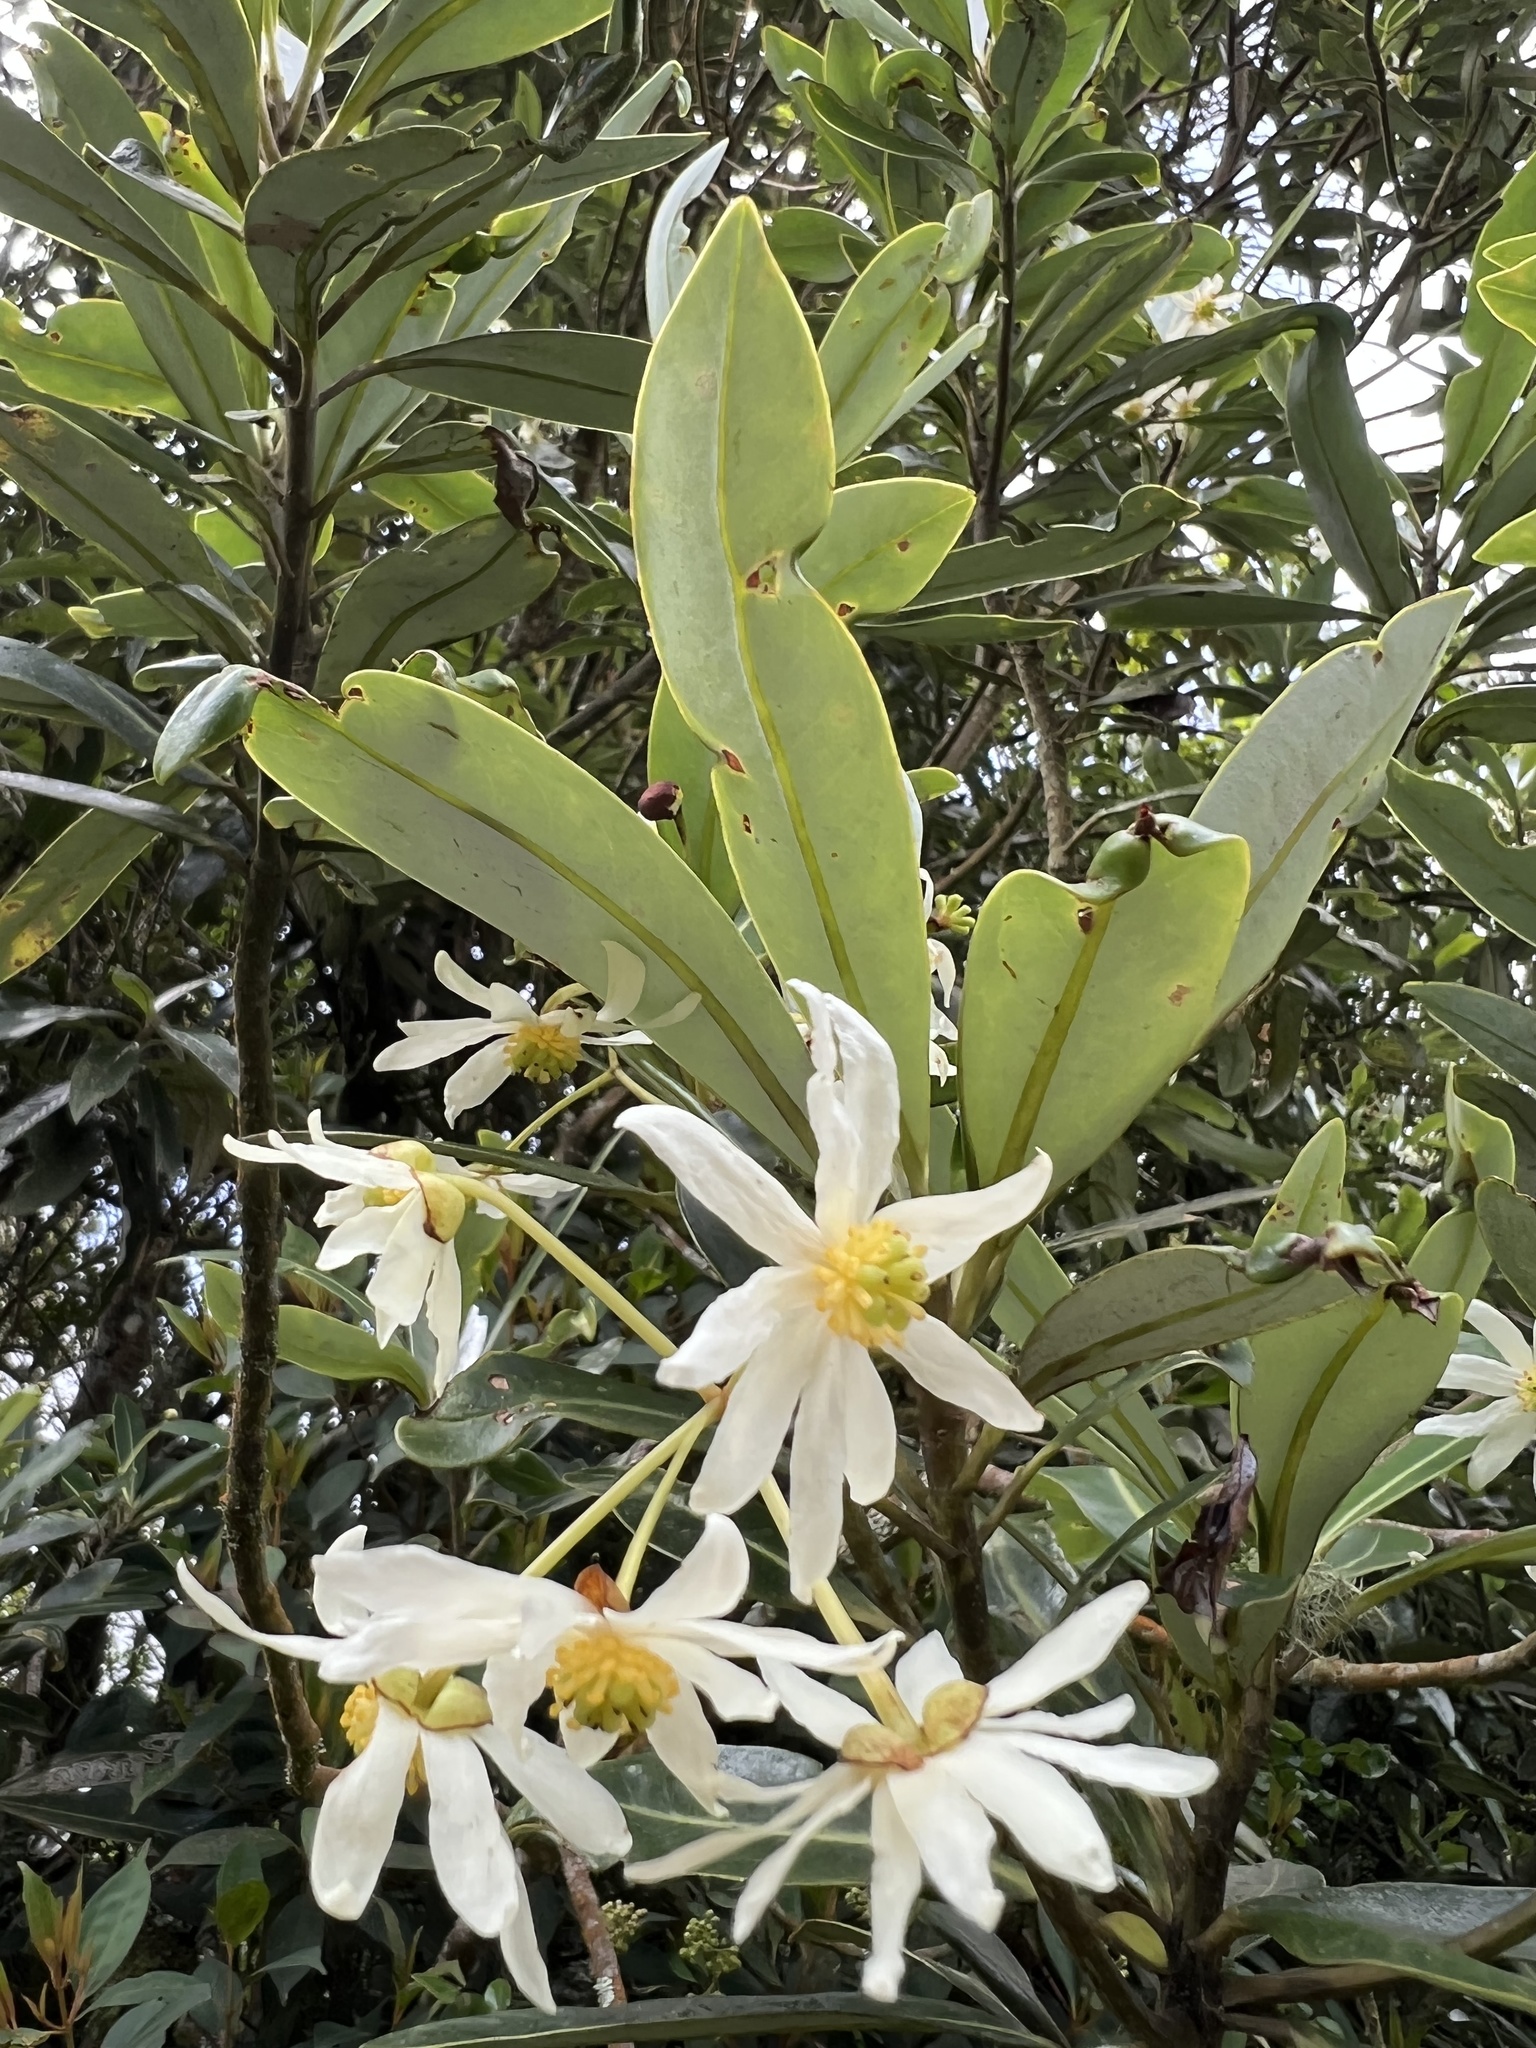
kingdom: Plantae
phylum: Tracheophyta
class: Magnoliopsida
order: Canellales
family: Winteraceae
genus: Drimys
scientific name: Drimys granadensis
